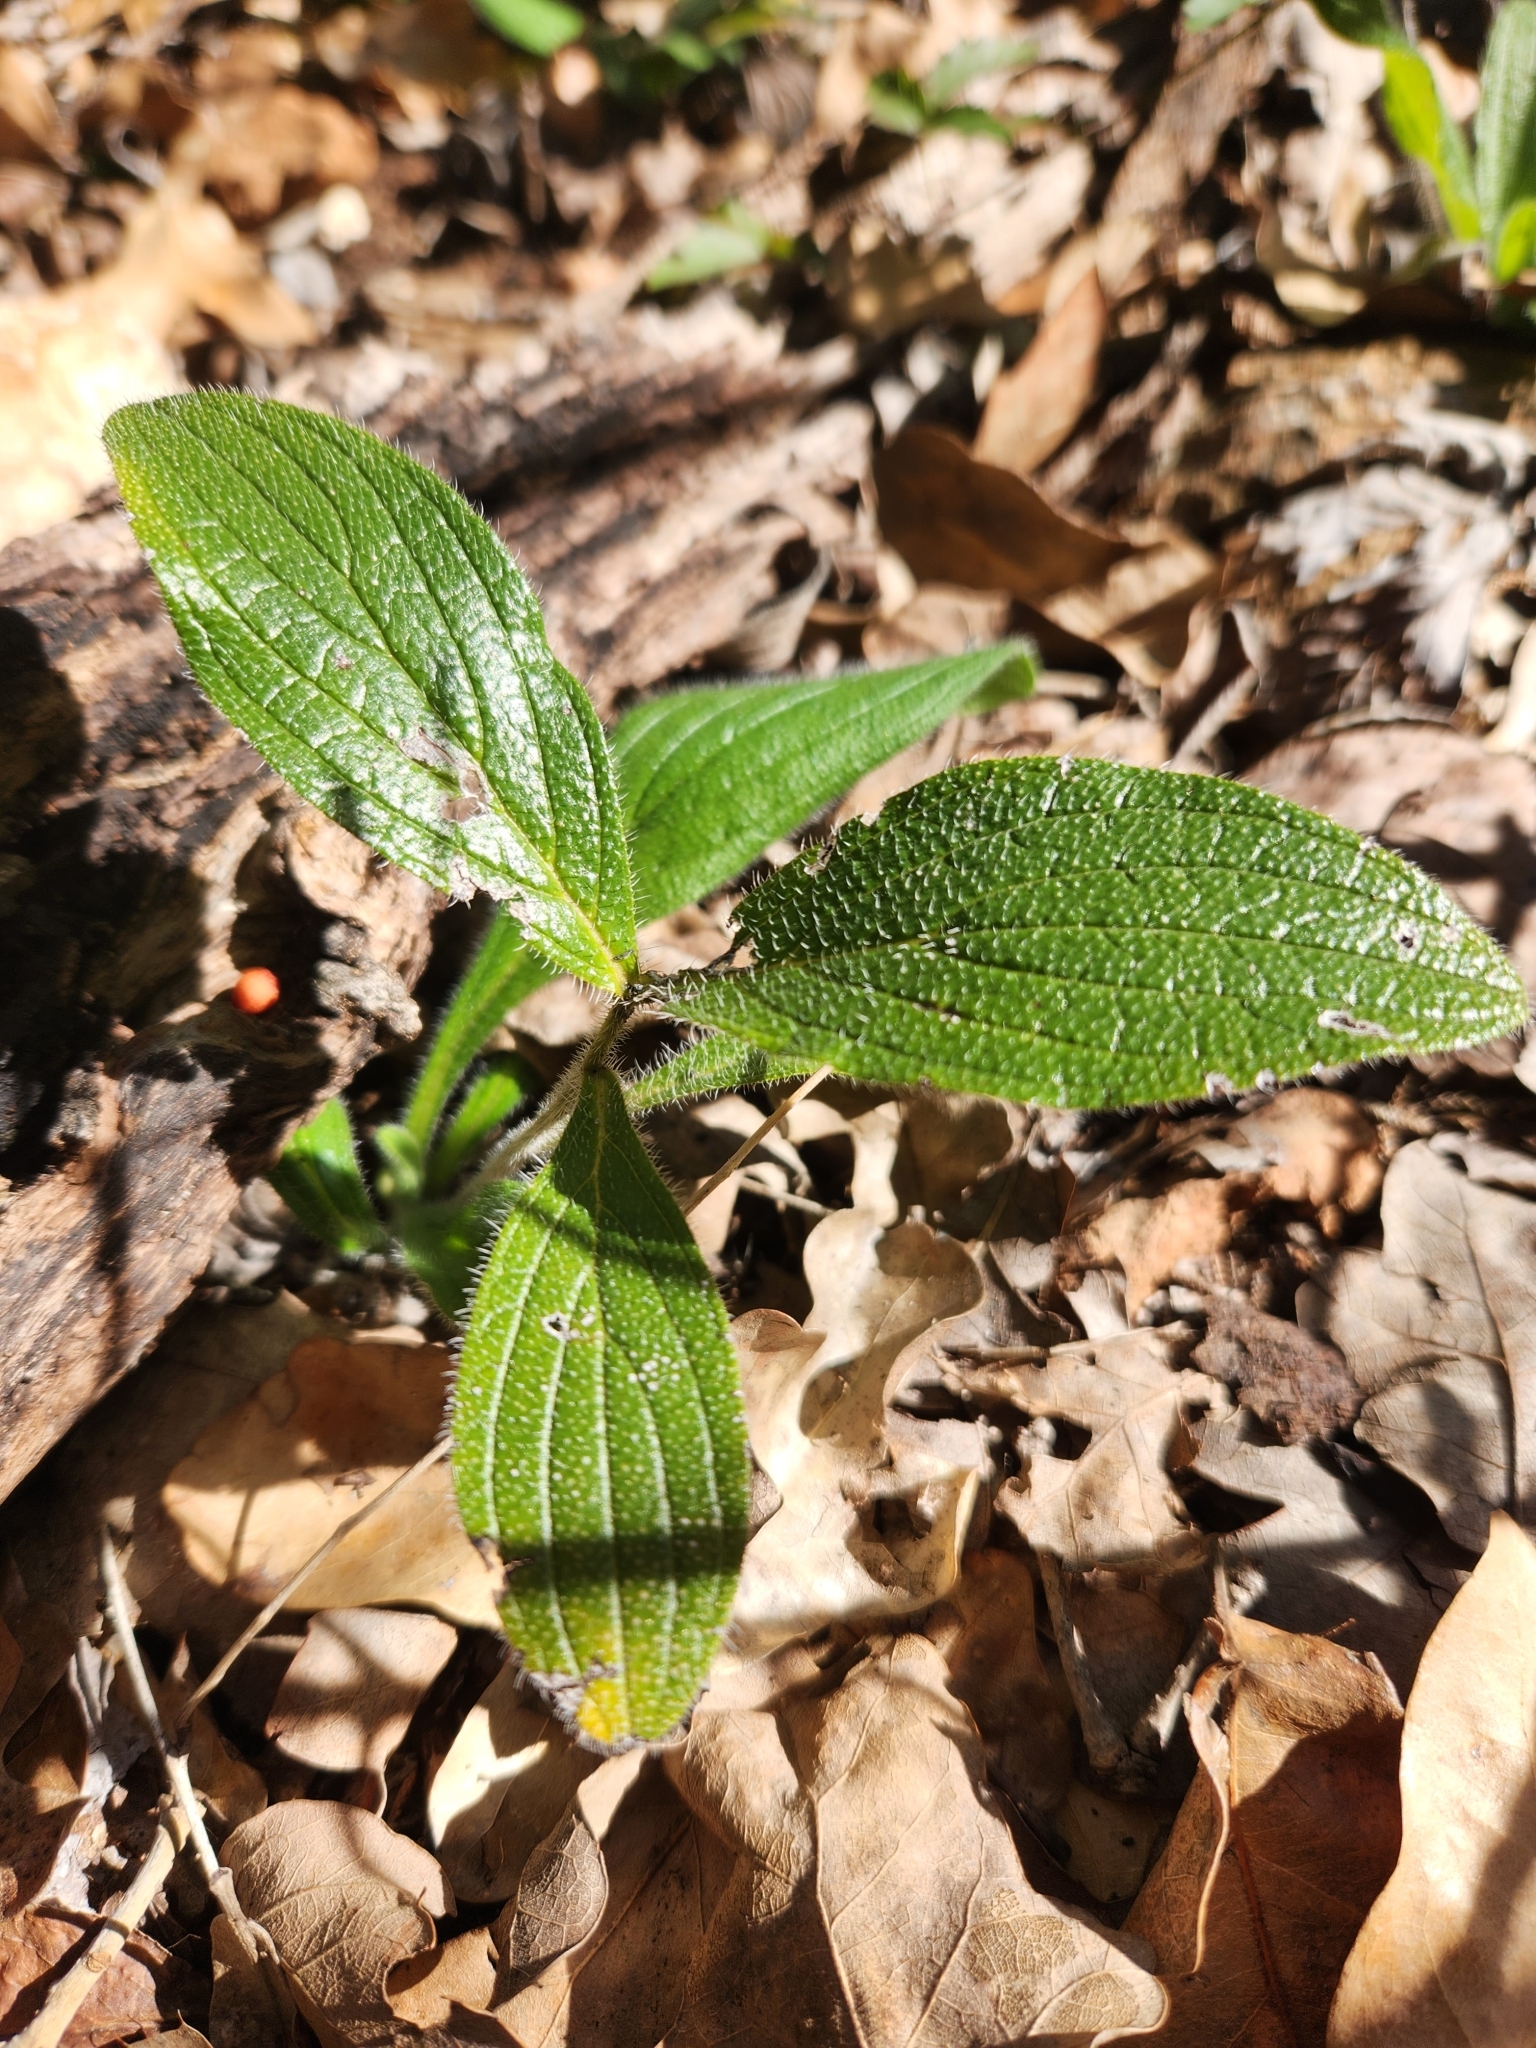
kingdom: Plantae
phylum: Tracheophyta
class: Magnoliopsida
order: Boraginales
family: Boraginaceae
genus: Lithospermum
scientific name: Lithospermum helleri
